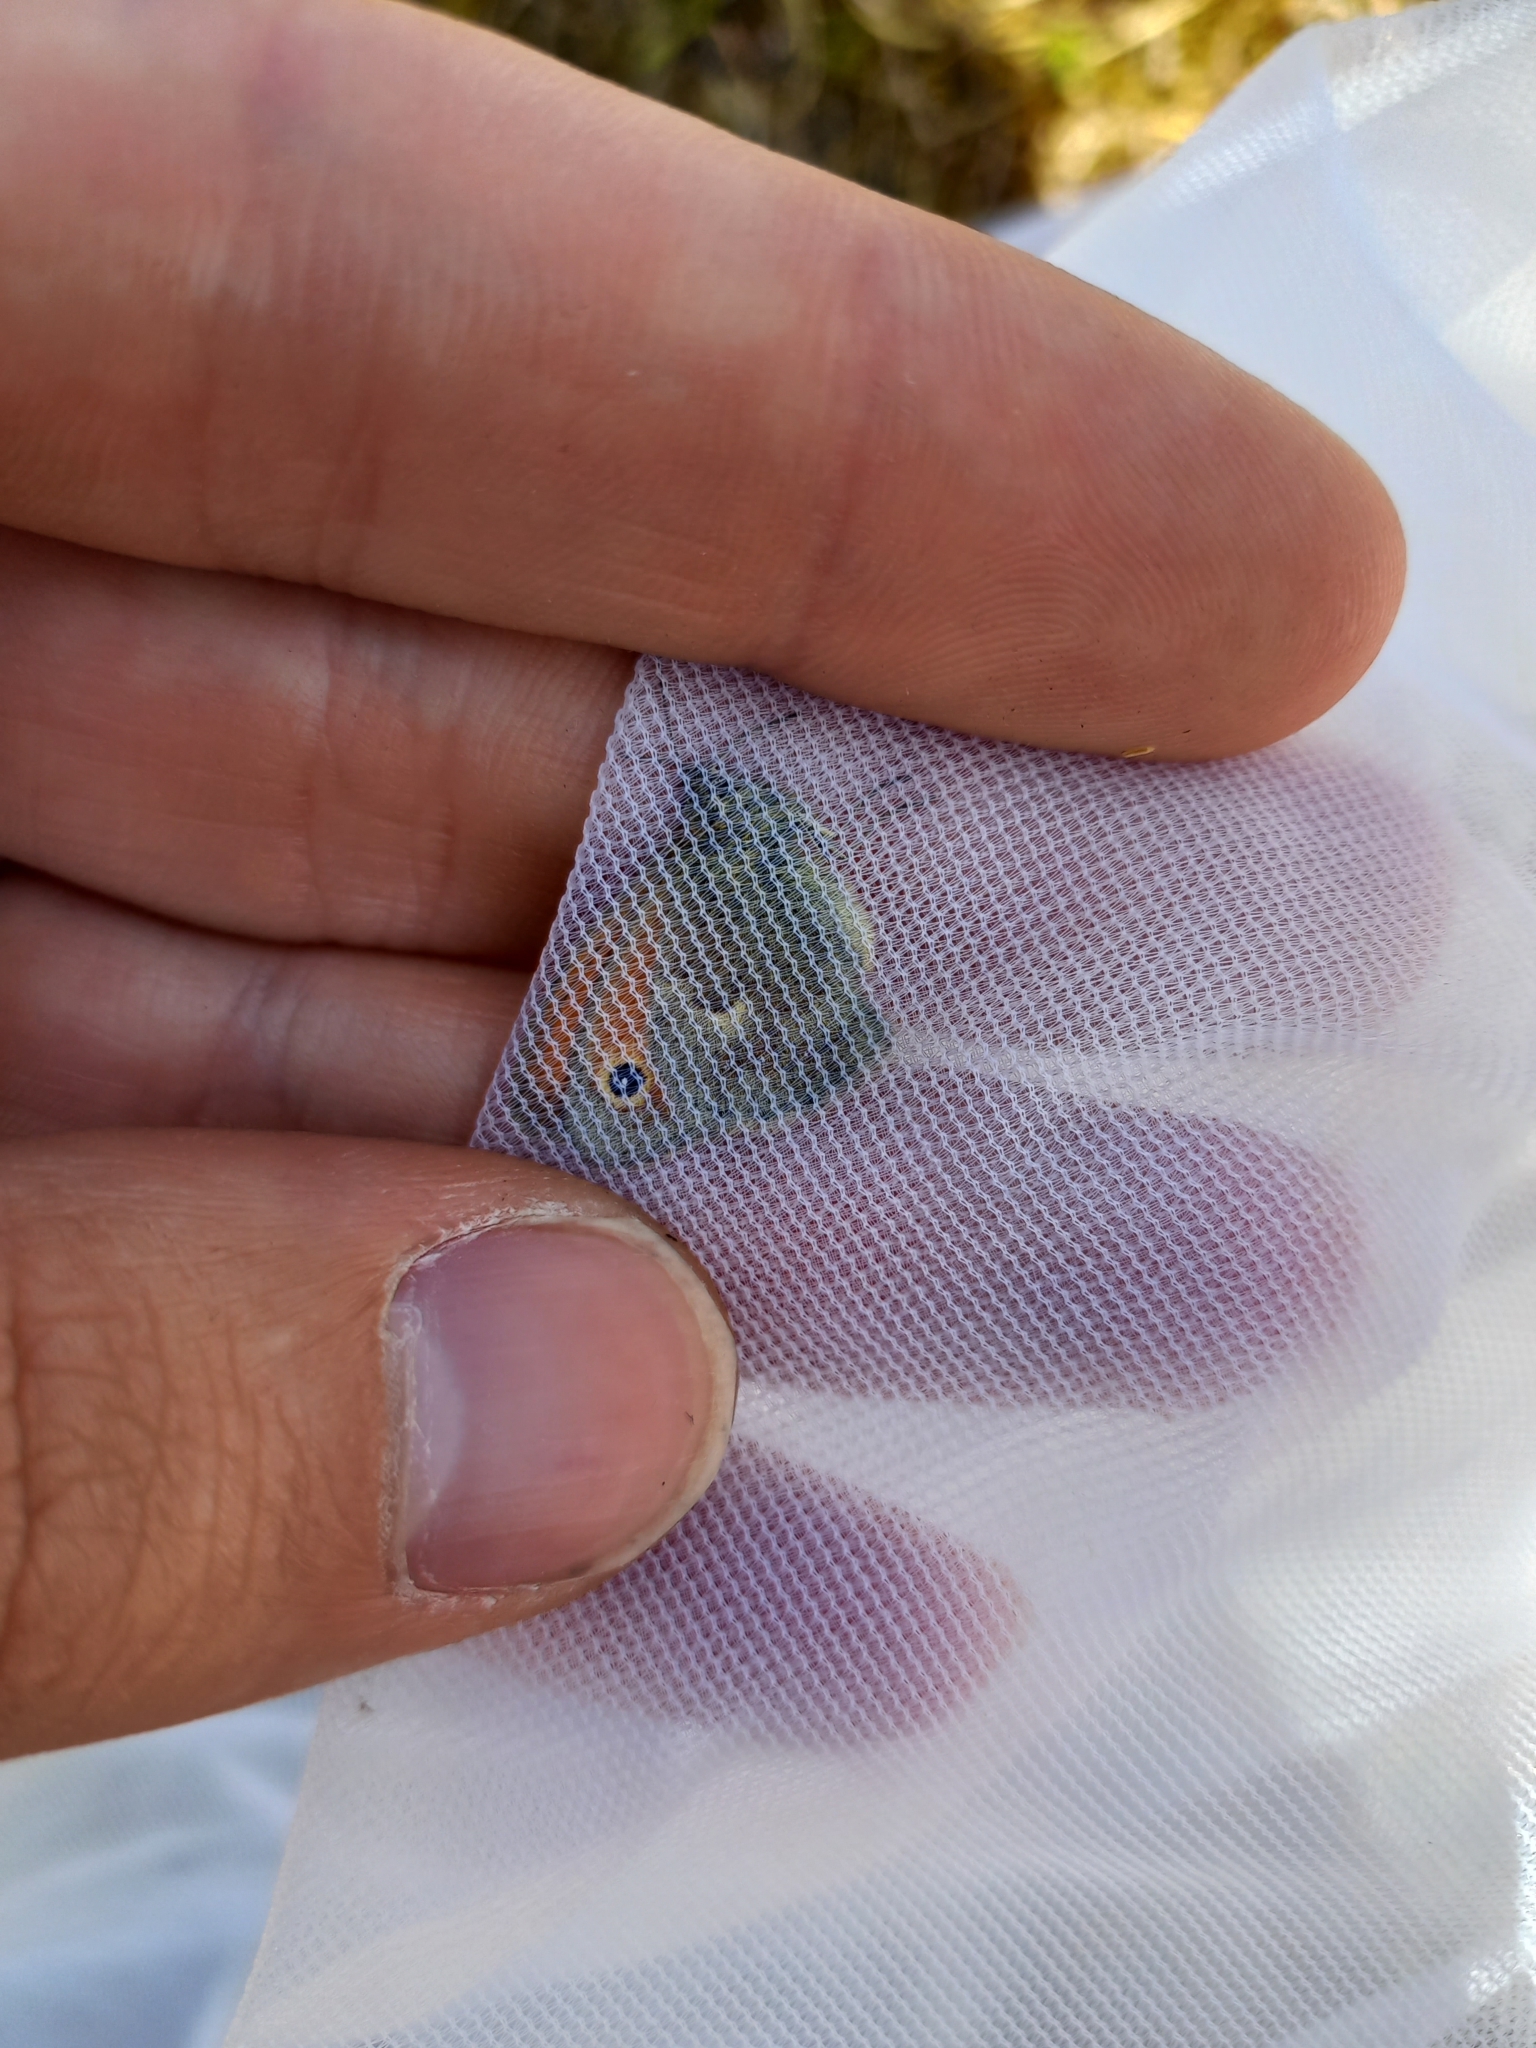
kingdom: Animalia
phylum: Arthropoda
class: Insecta
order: Lepidoptera
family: Nymphalidae
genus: Coenonympha
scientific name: Coenonympha pamphilus
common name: Small heath
